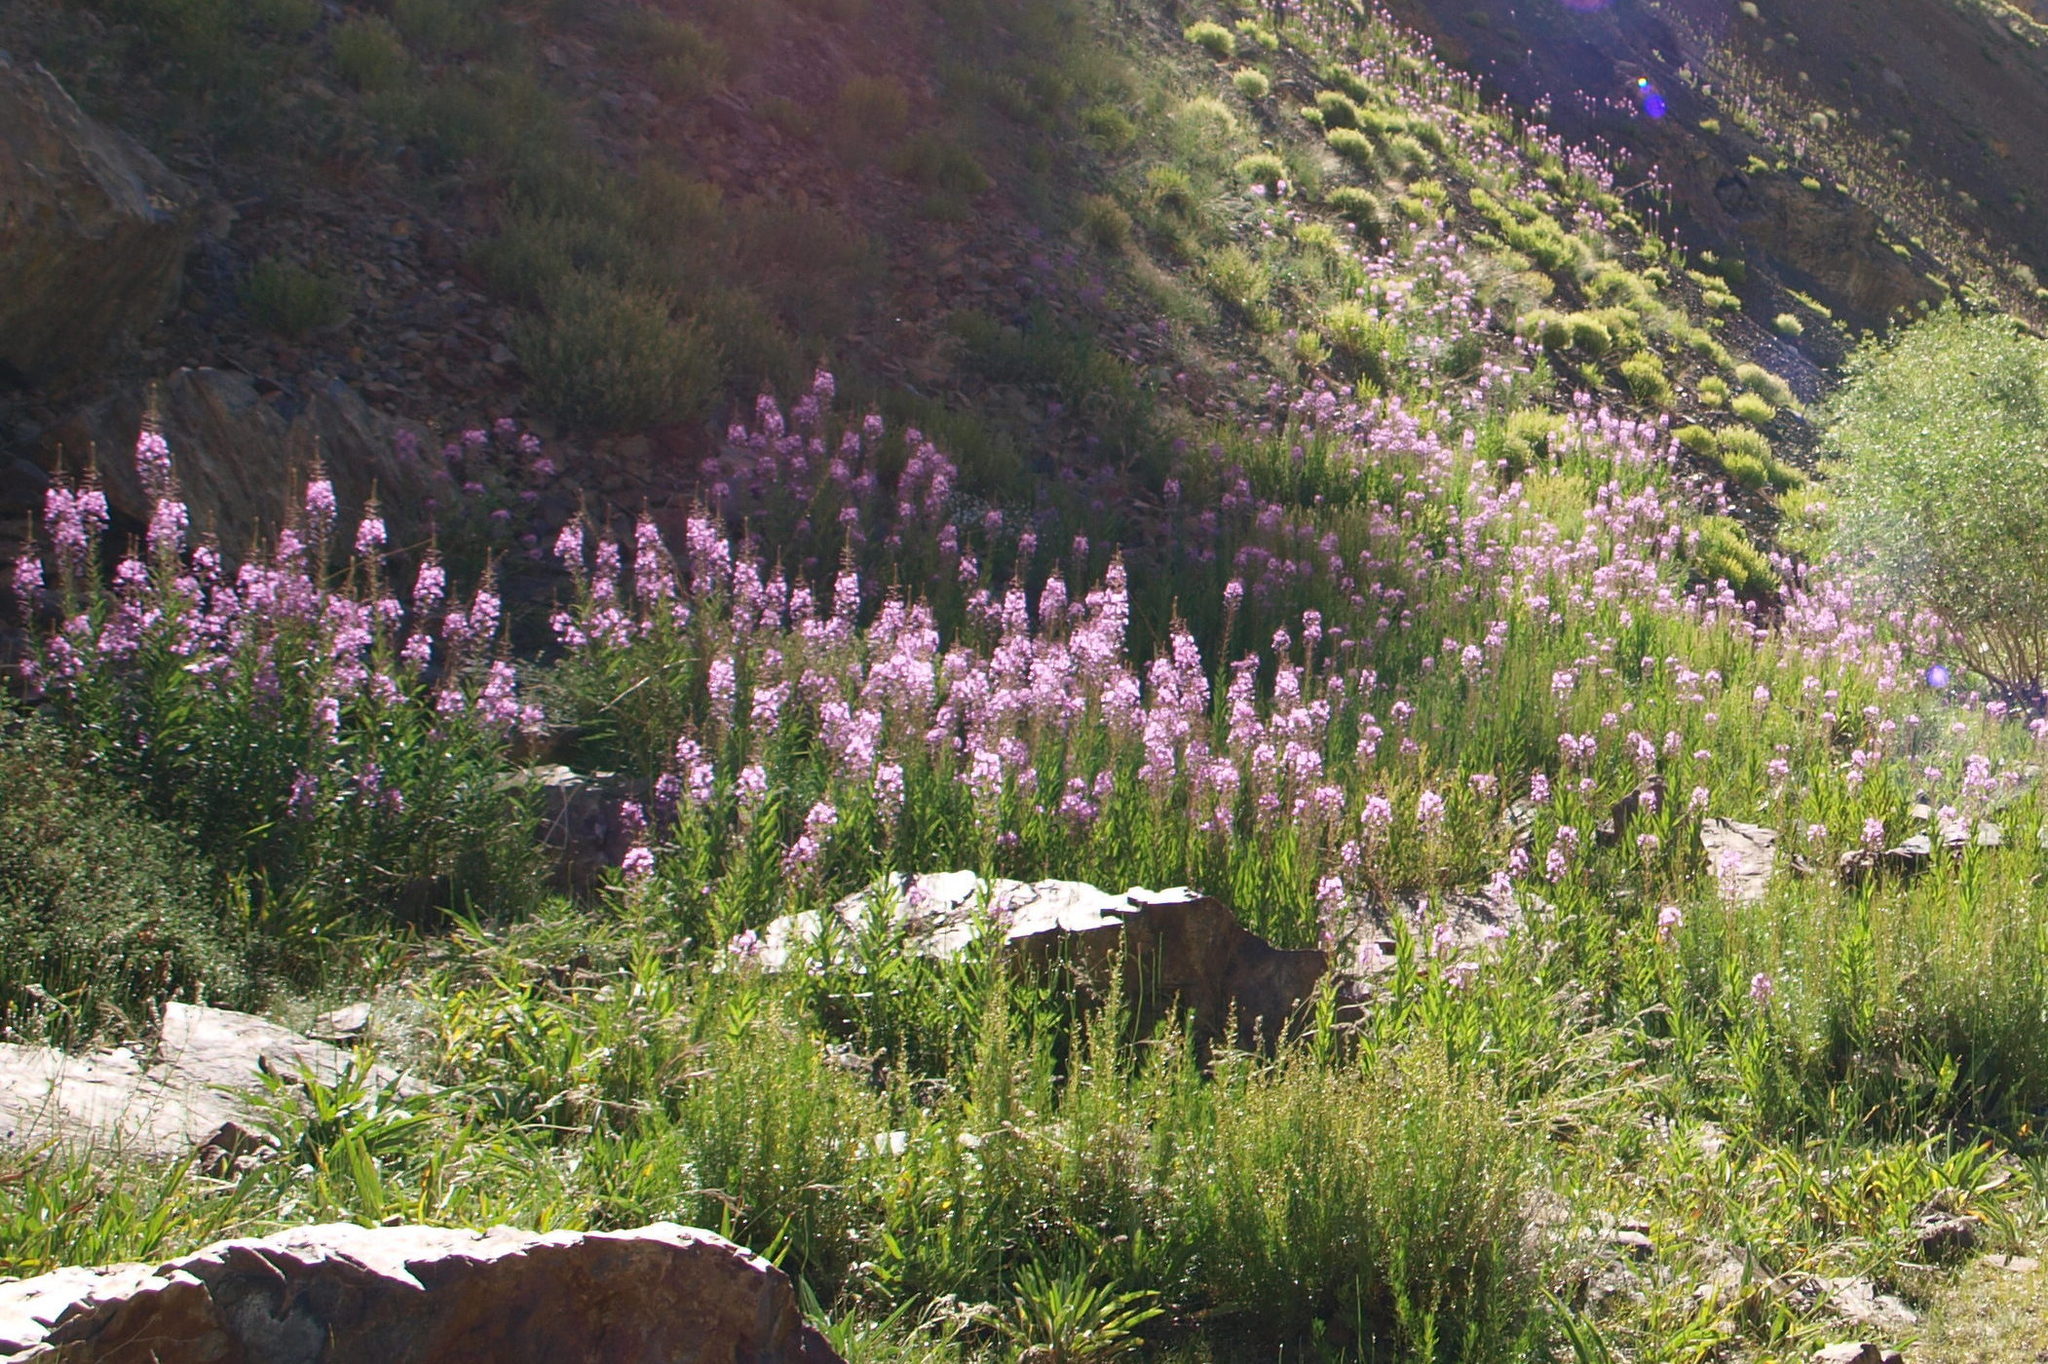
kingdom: Plantae
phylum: Tracheophyta
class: Magnoliopsida
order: Myrtales
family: Onagraceae
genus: Chamaenerion
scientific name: Chamaenerion angustifolium
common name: Fireweed
